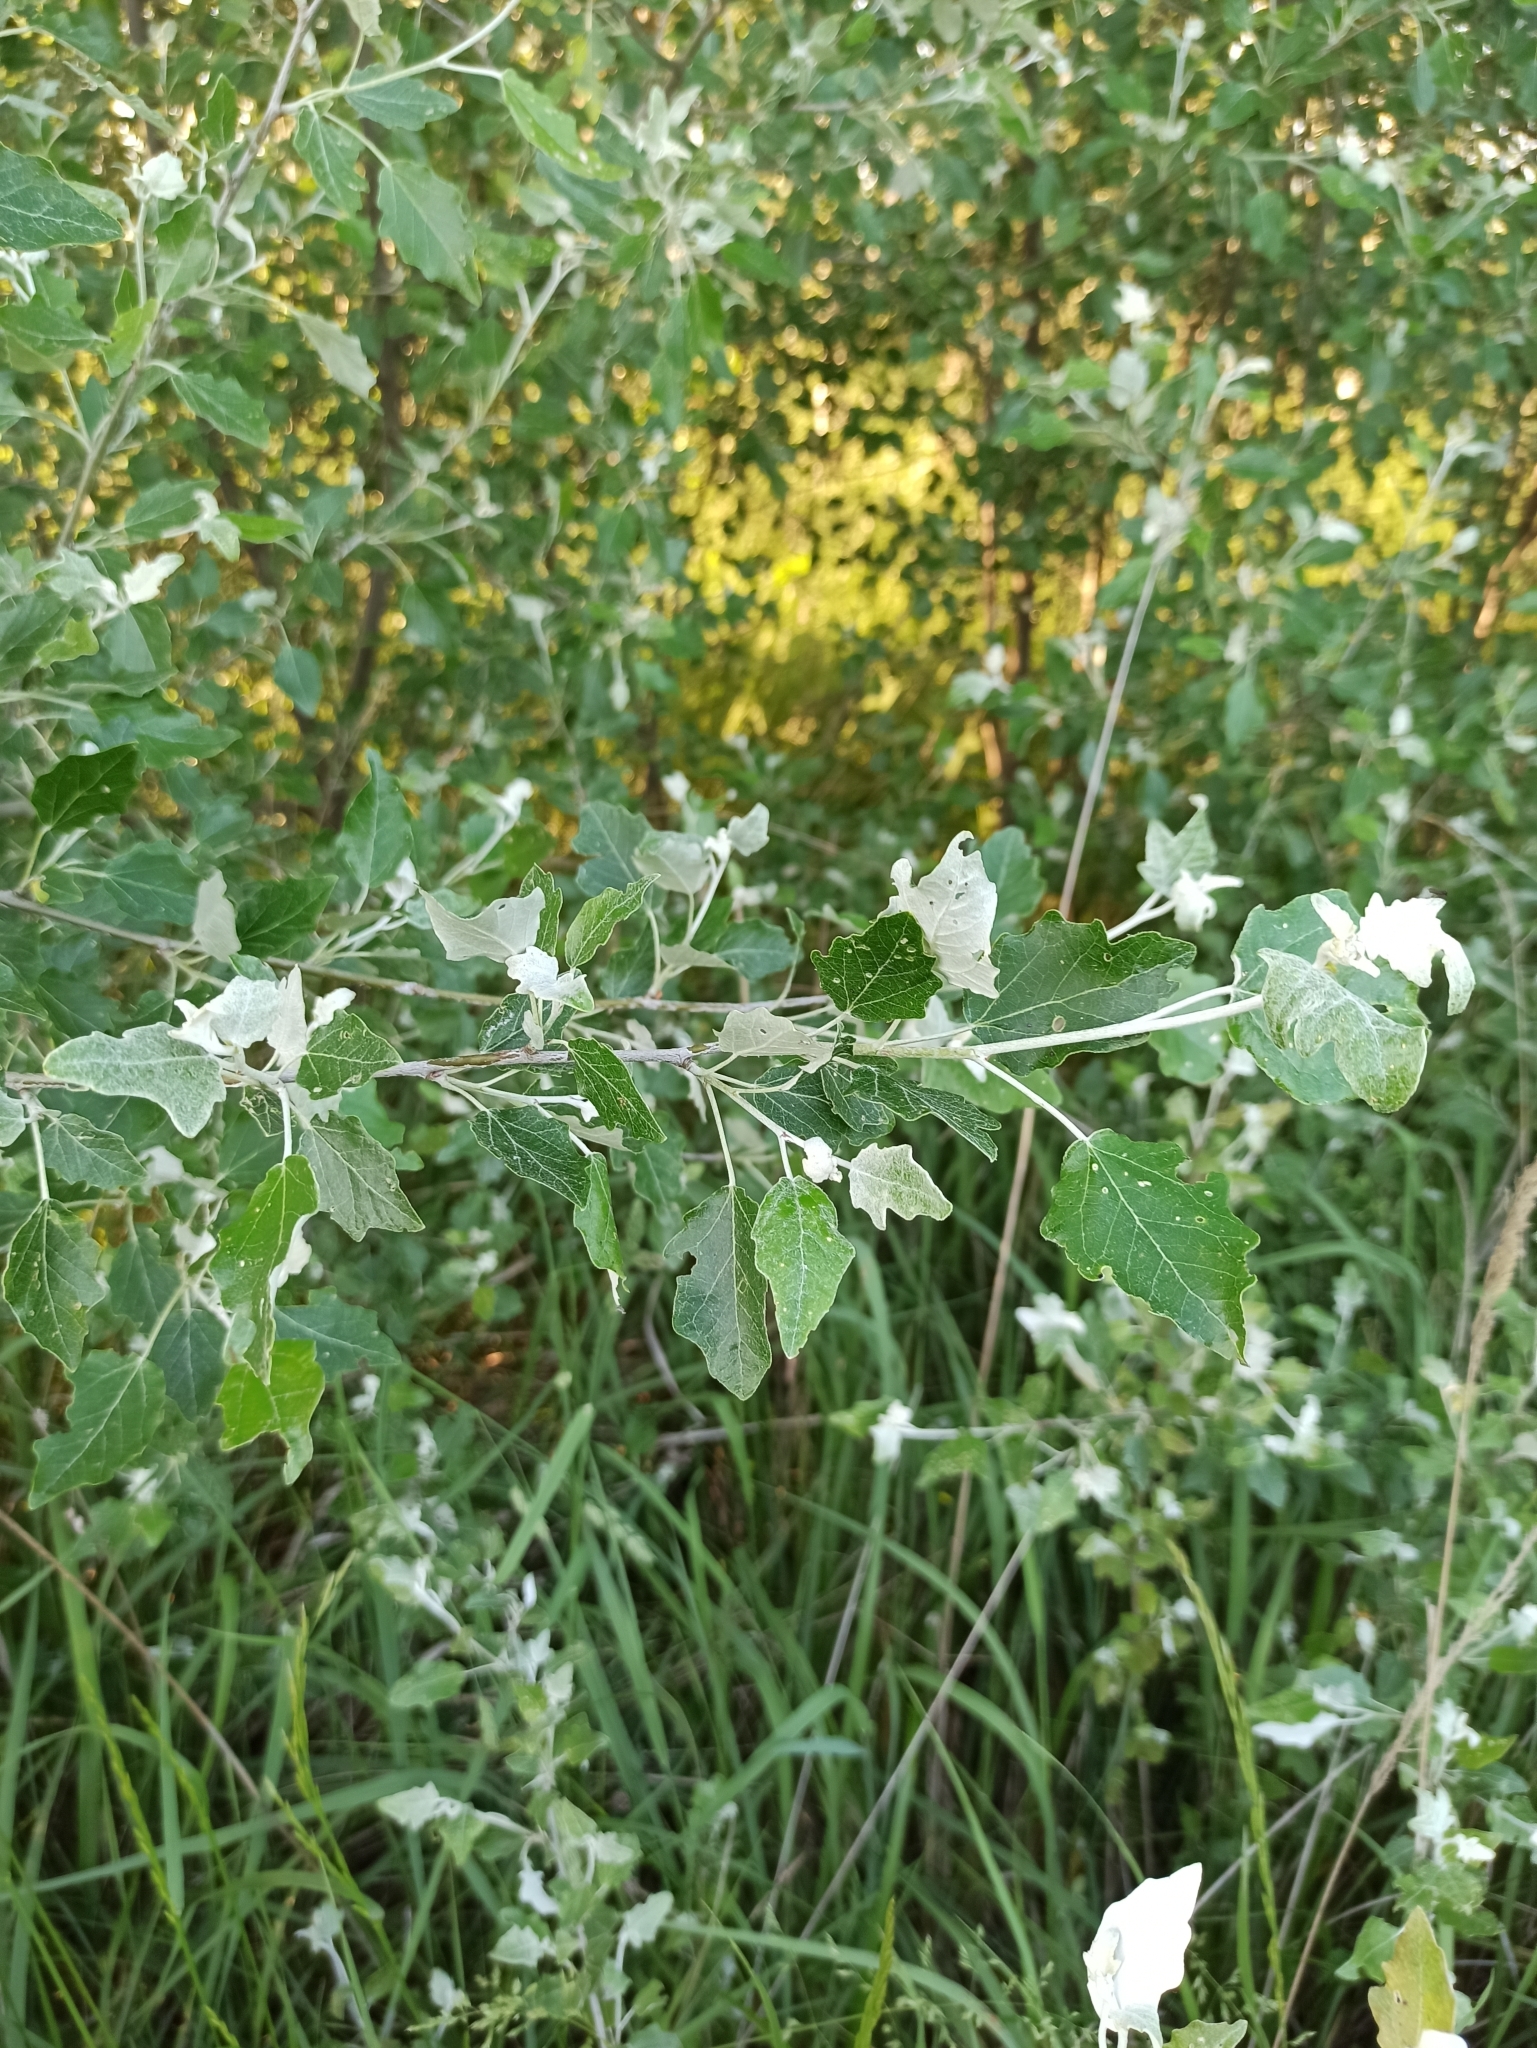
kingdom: Plantae
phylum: Tracheophyta
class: Magnoliopsida
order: Malpighiales
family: Salicaceae
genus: Populus
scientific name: Populus alba
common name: White poplar
